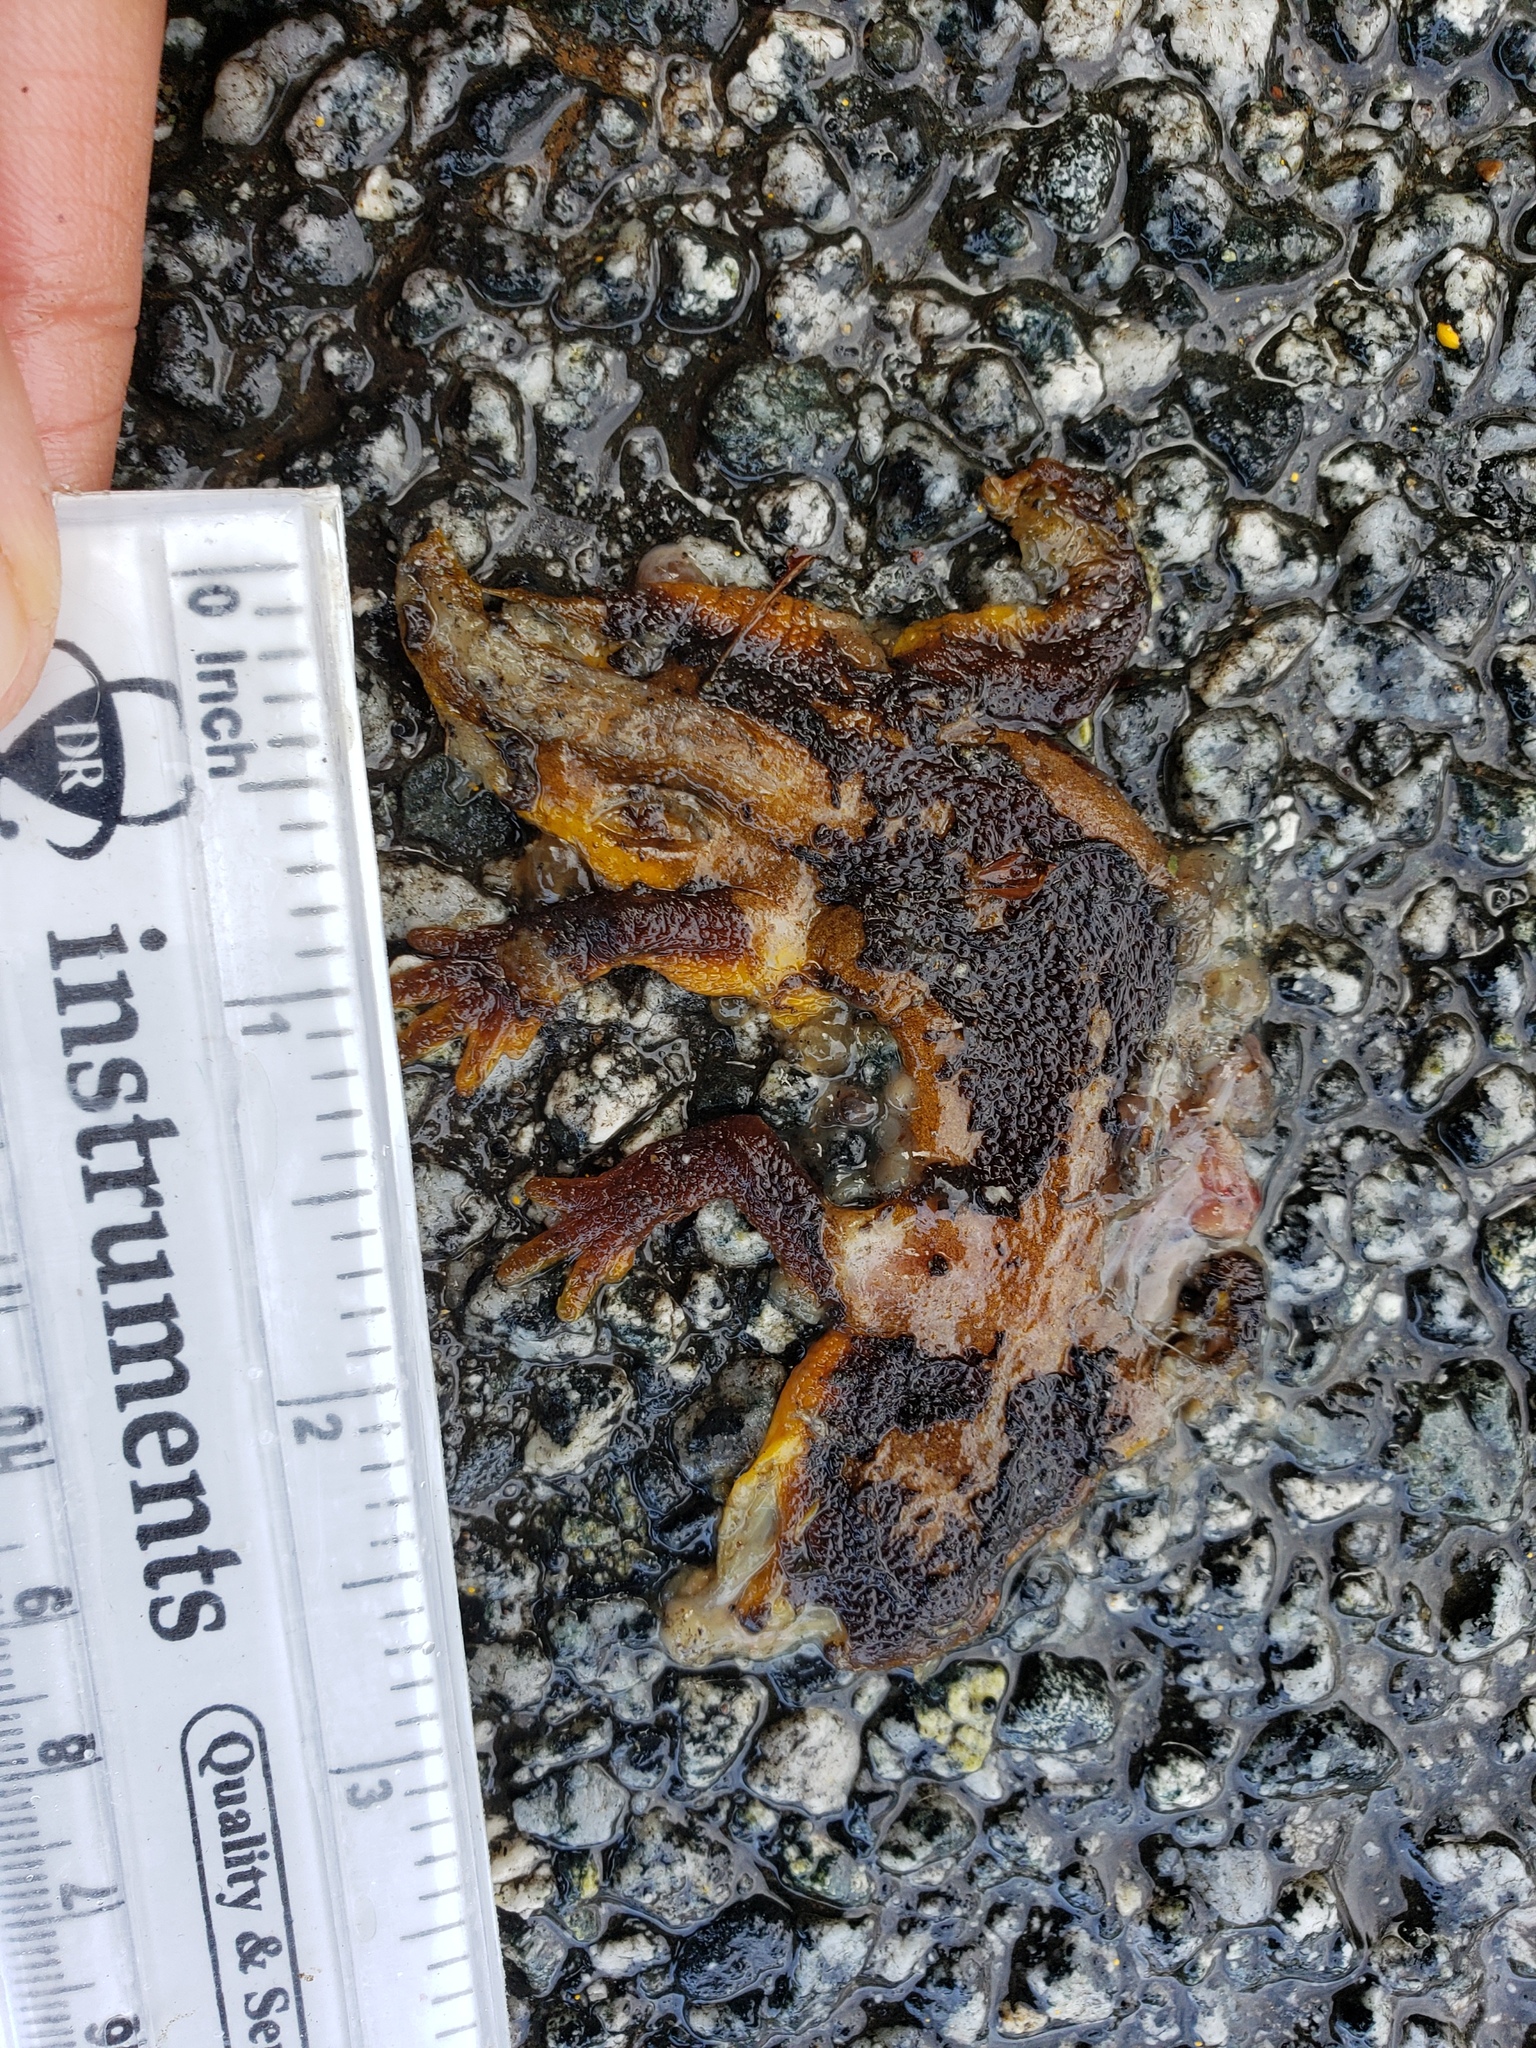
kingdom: Animalia
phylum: Chordata
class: Amphibia
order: Caudata
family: Salamandridae
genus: Taricha
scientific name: Taricha
